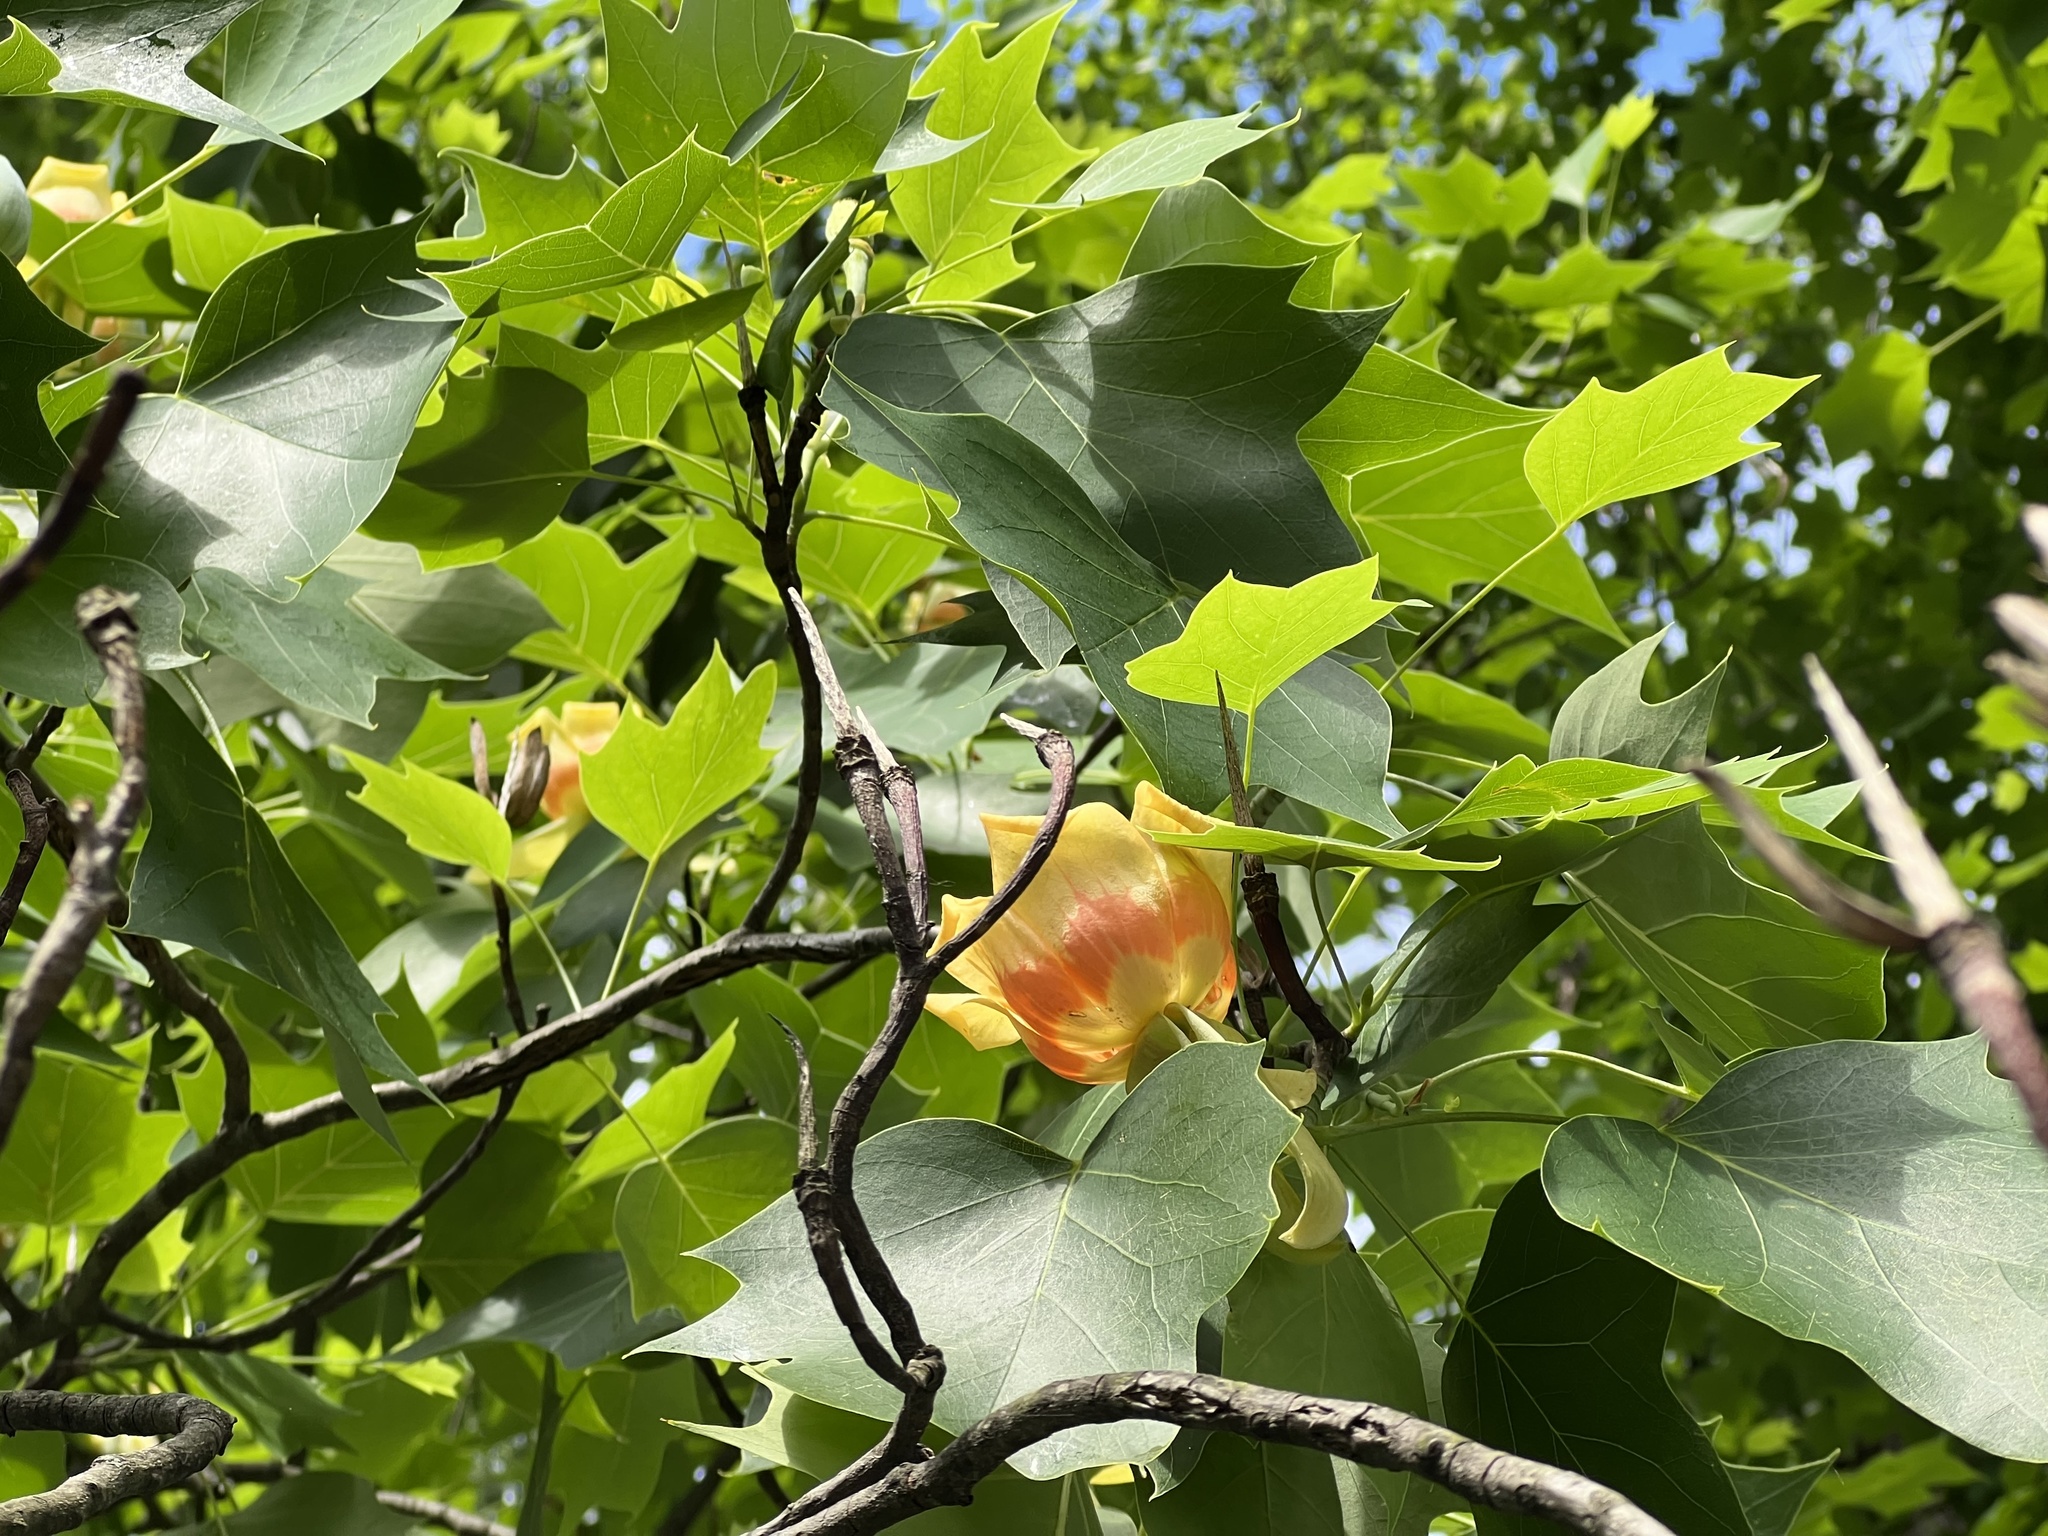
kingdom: Plantae
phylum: Tracheophyta
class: Magnoliopsida
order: Magnoliales
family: Magnoliaceae
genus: Liriodendron
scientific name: Liriodendron tulipifera
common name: Tulip tree
